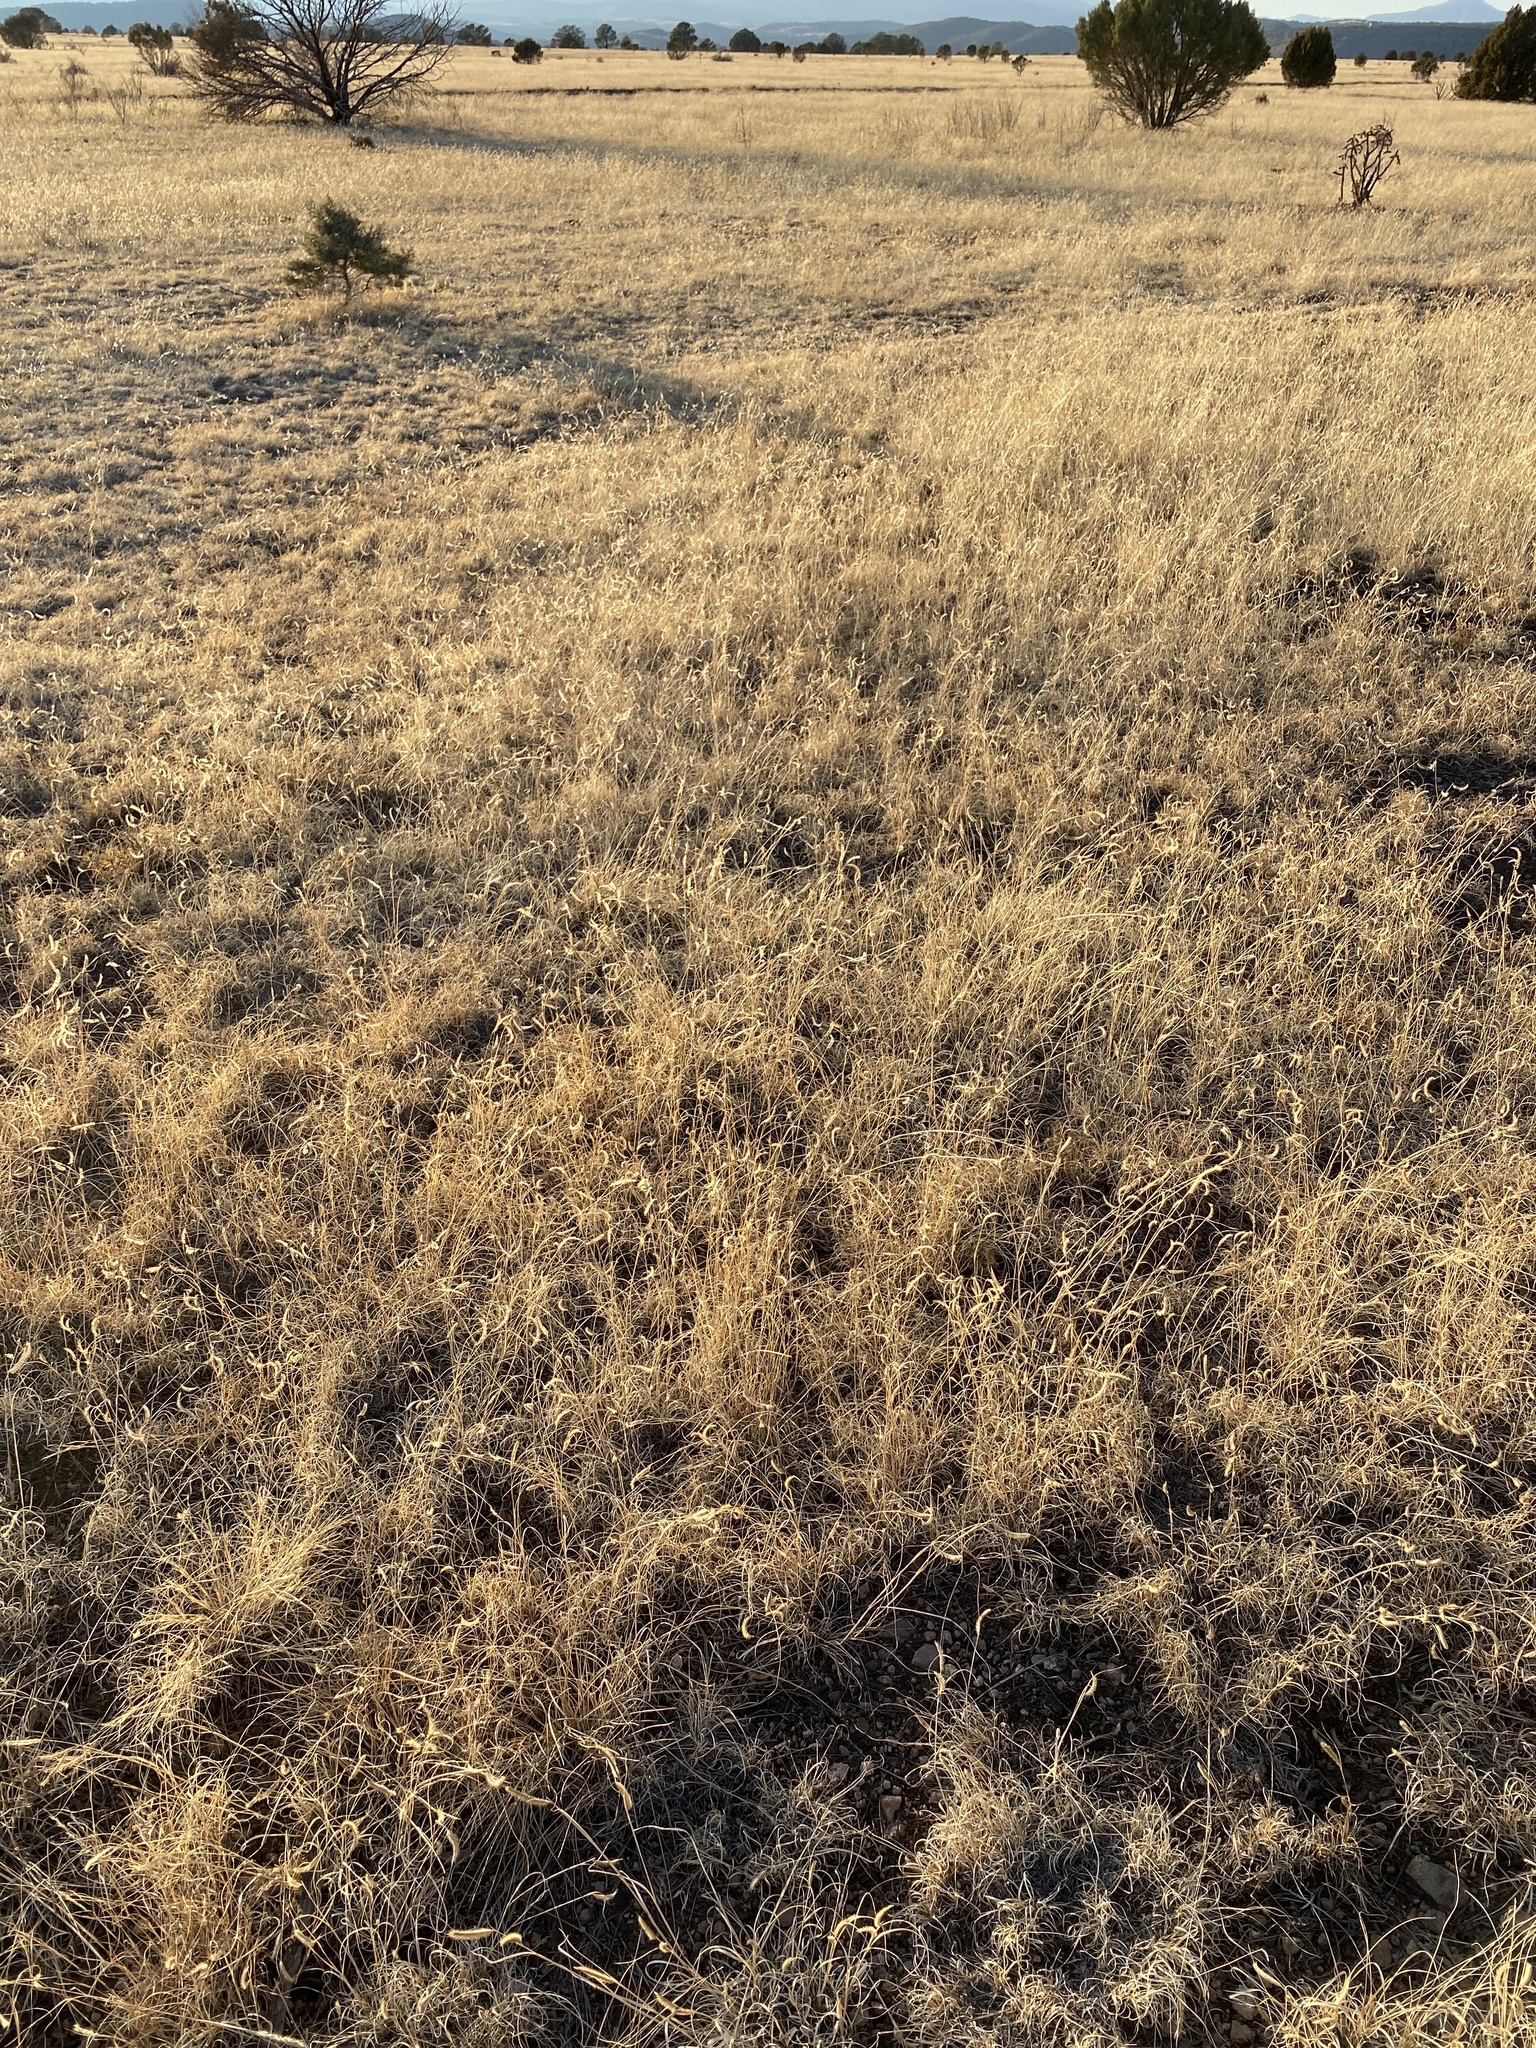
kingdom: Plantae
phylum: Tracheophyta
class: Liliopsida
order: Poales
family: Poaceae
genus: Bouteloua
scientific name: Bouteloua gracilis
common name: Blue grama
